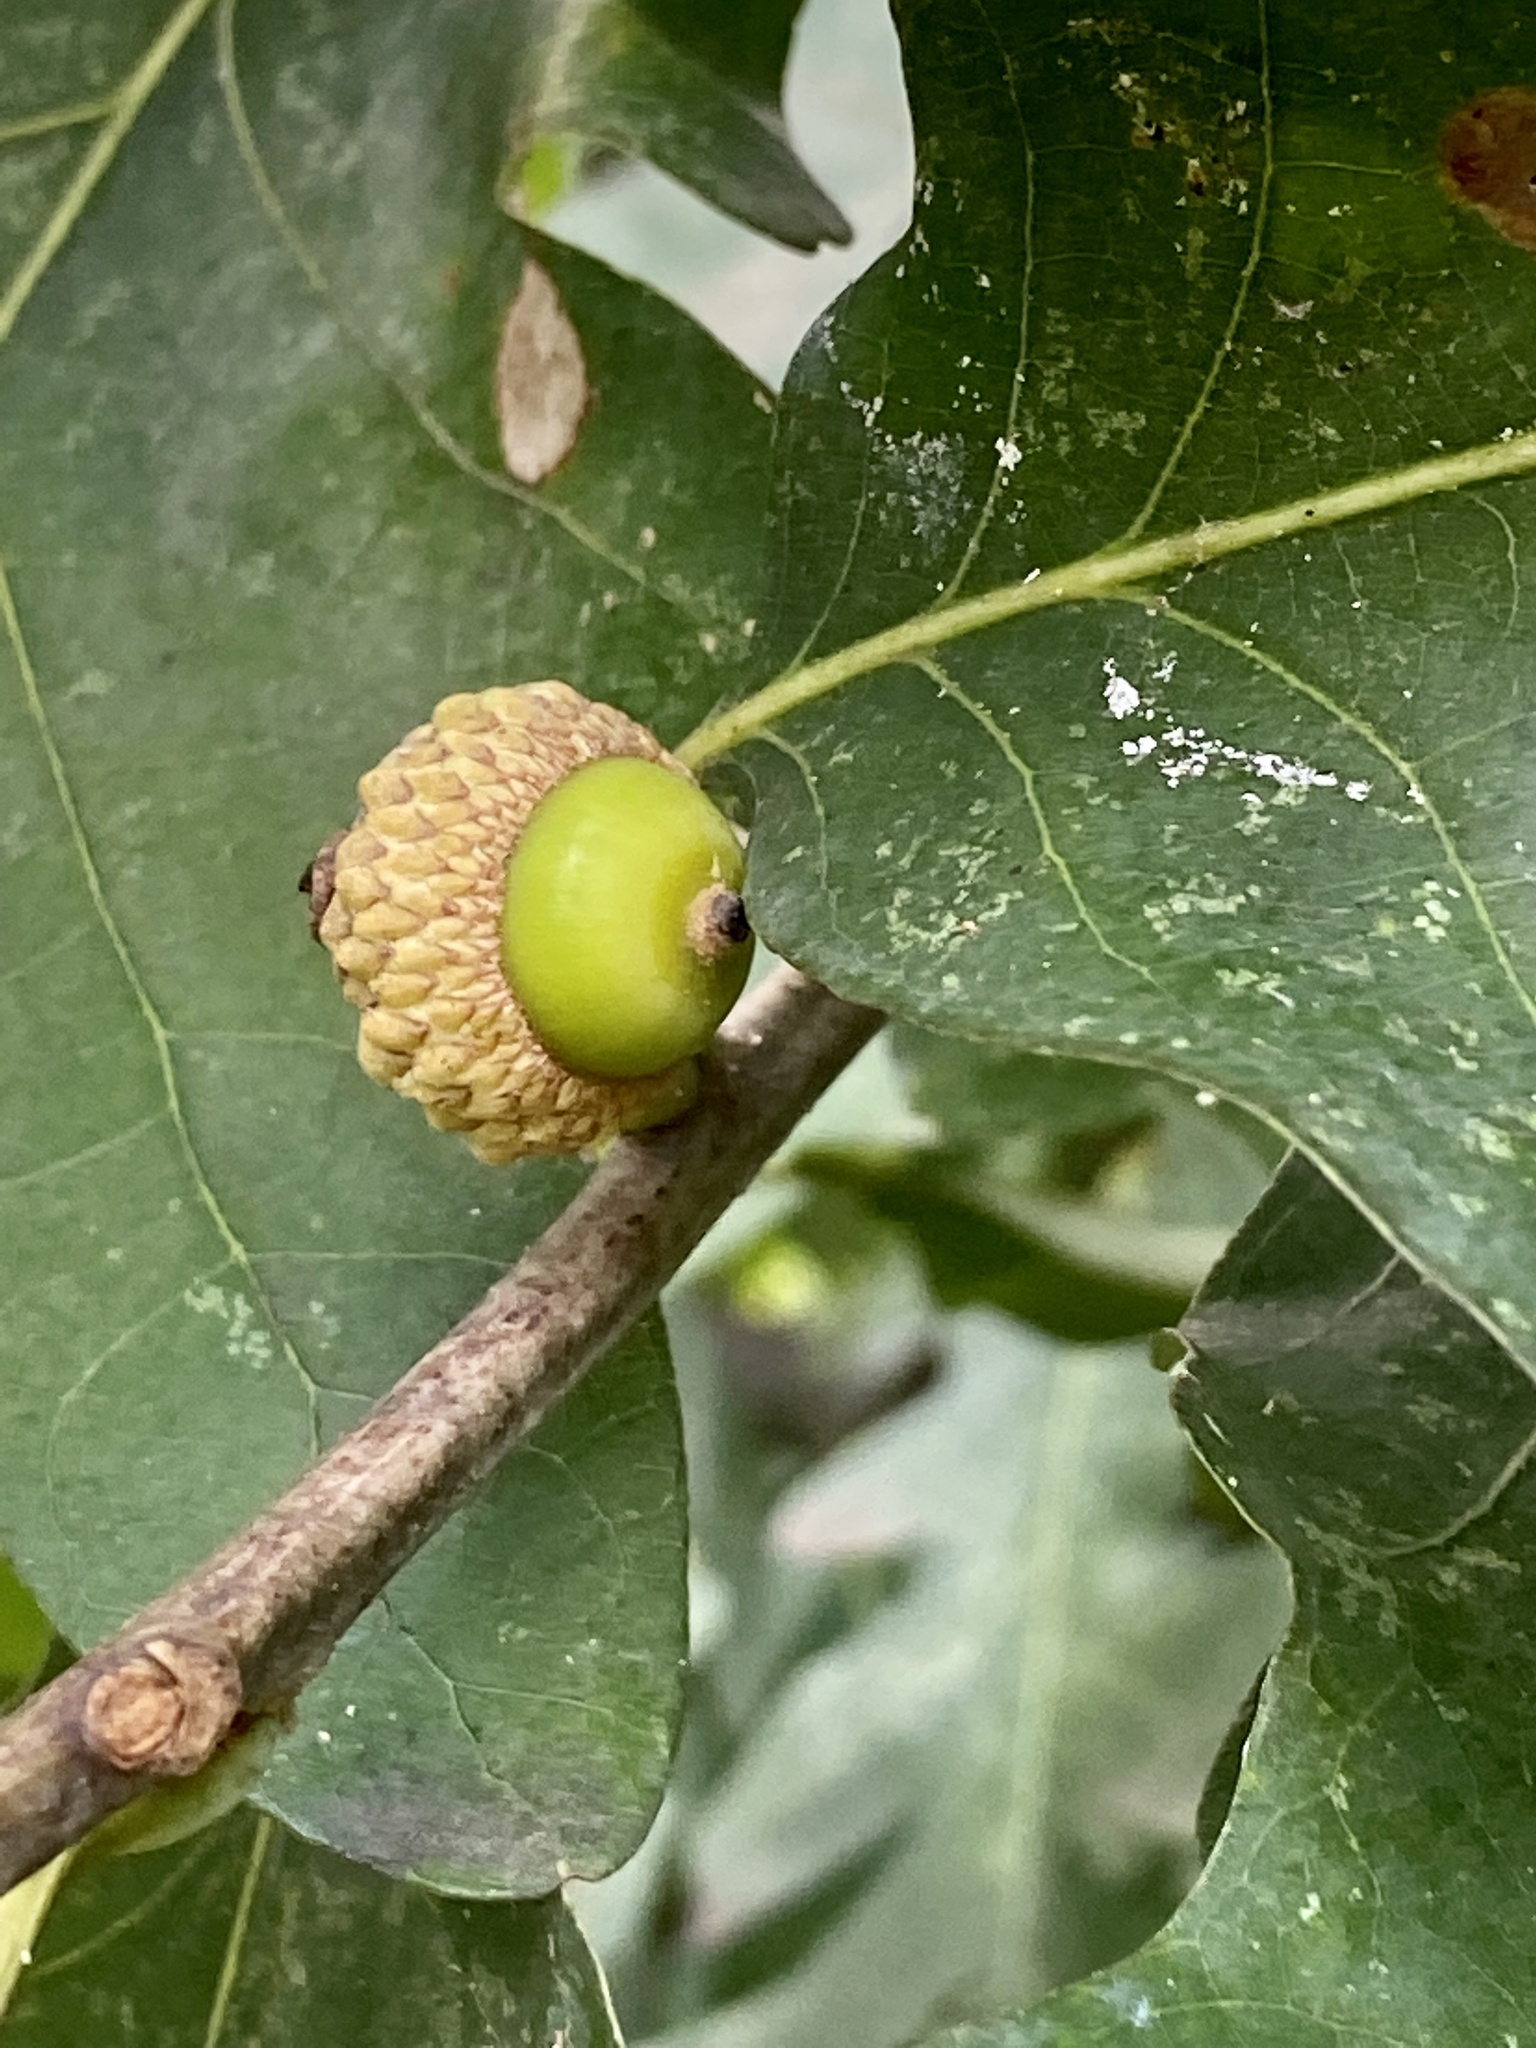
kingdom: Plantae
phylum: Tracheophyta
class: Magnoliopsida
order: Fagales
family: Fagaceae
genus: Quercus
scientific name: Quercus alba
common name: White oak
